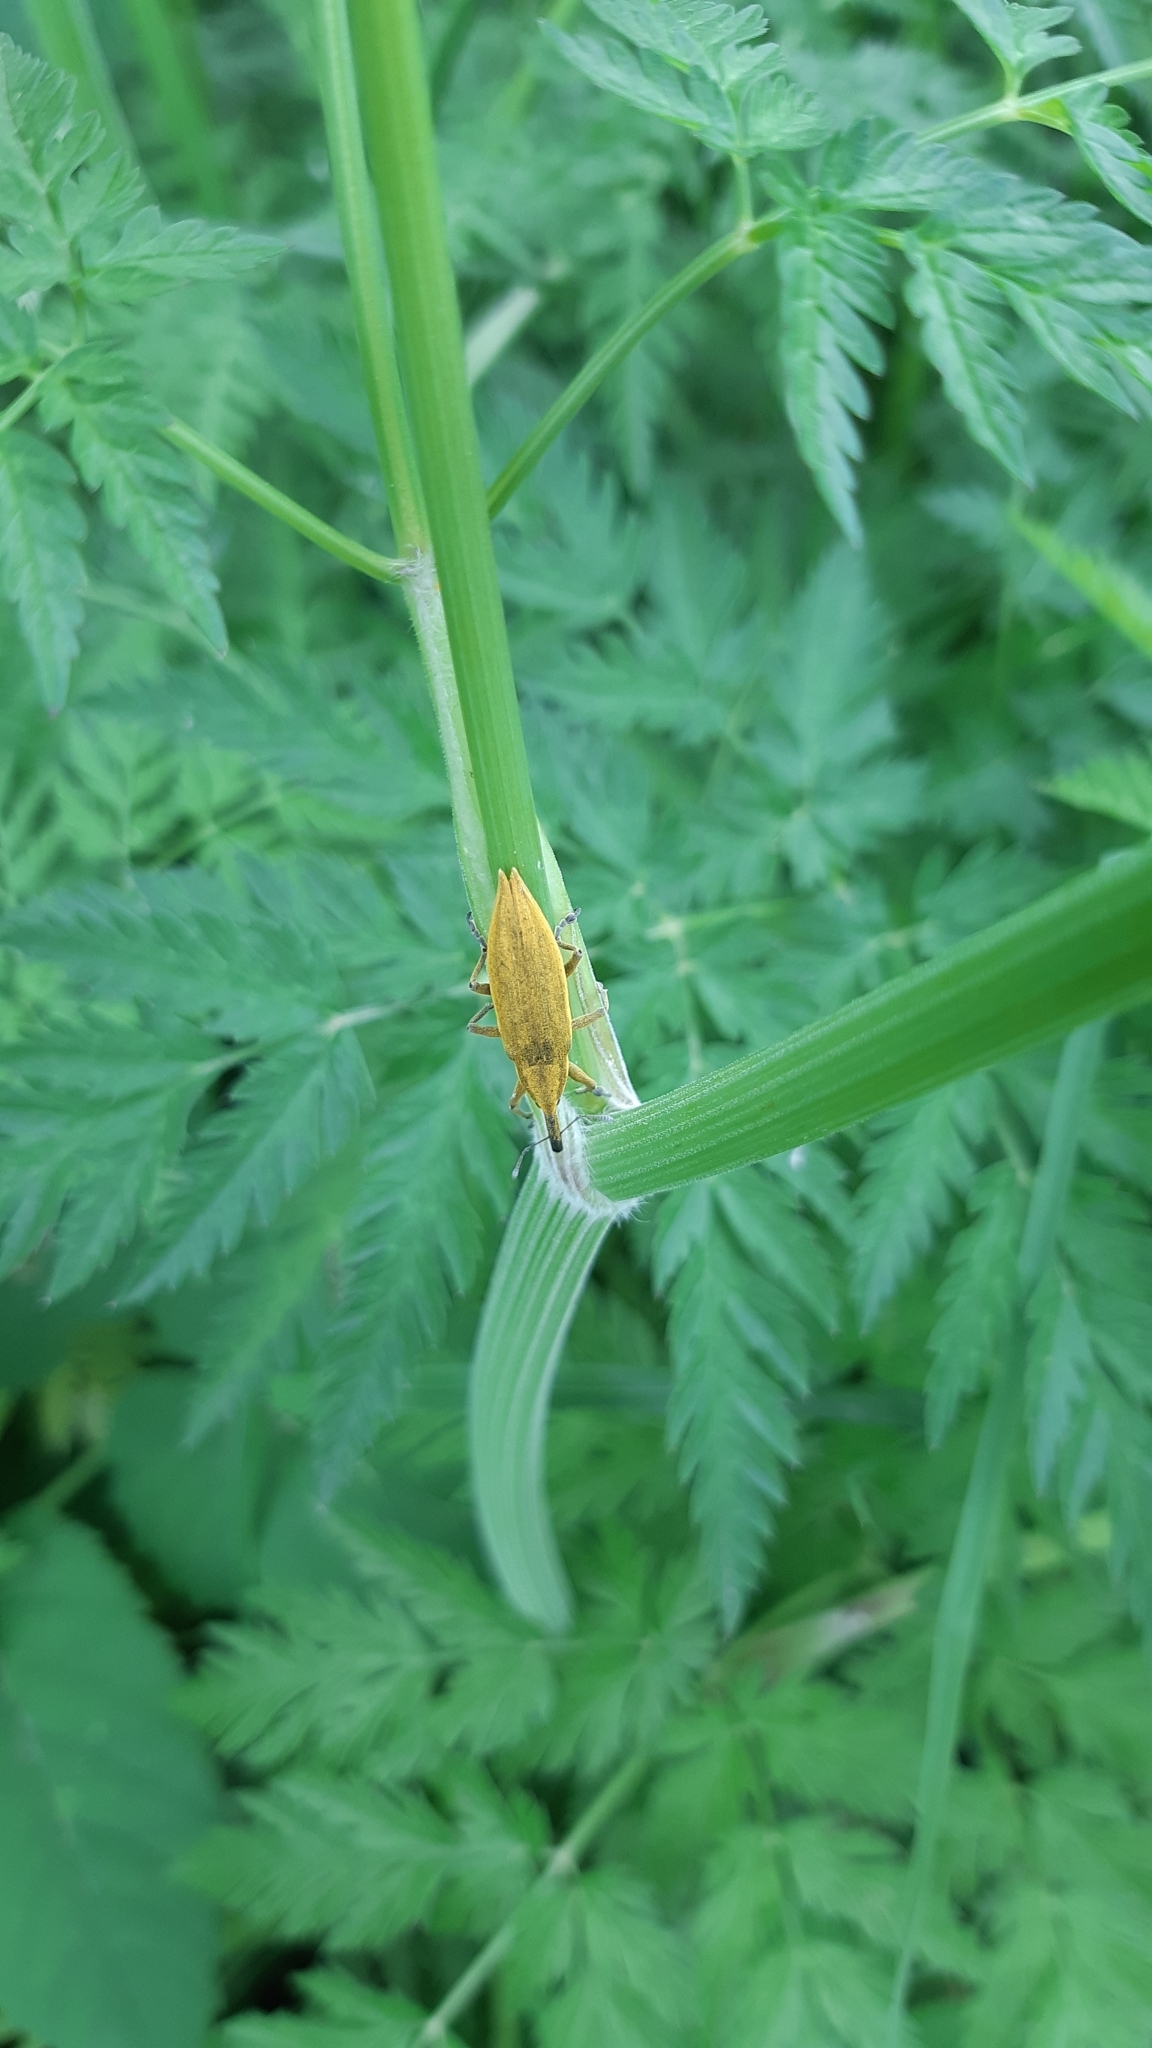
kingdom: Animalia
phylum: Arthropoda
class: Insecta
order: Coleoptera
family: Curculionidae
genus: Lixus
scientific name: Lixus iridis
